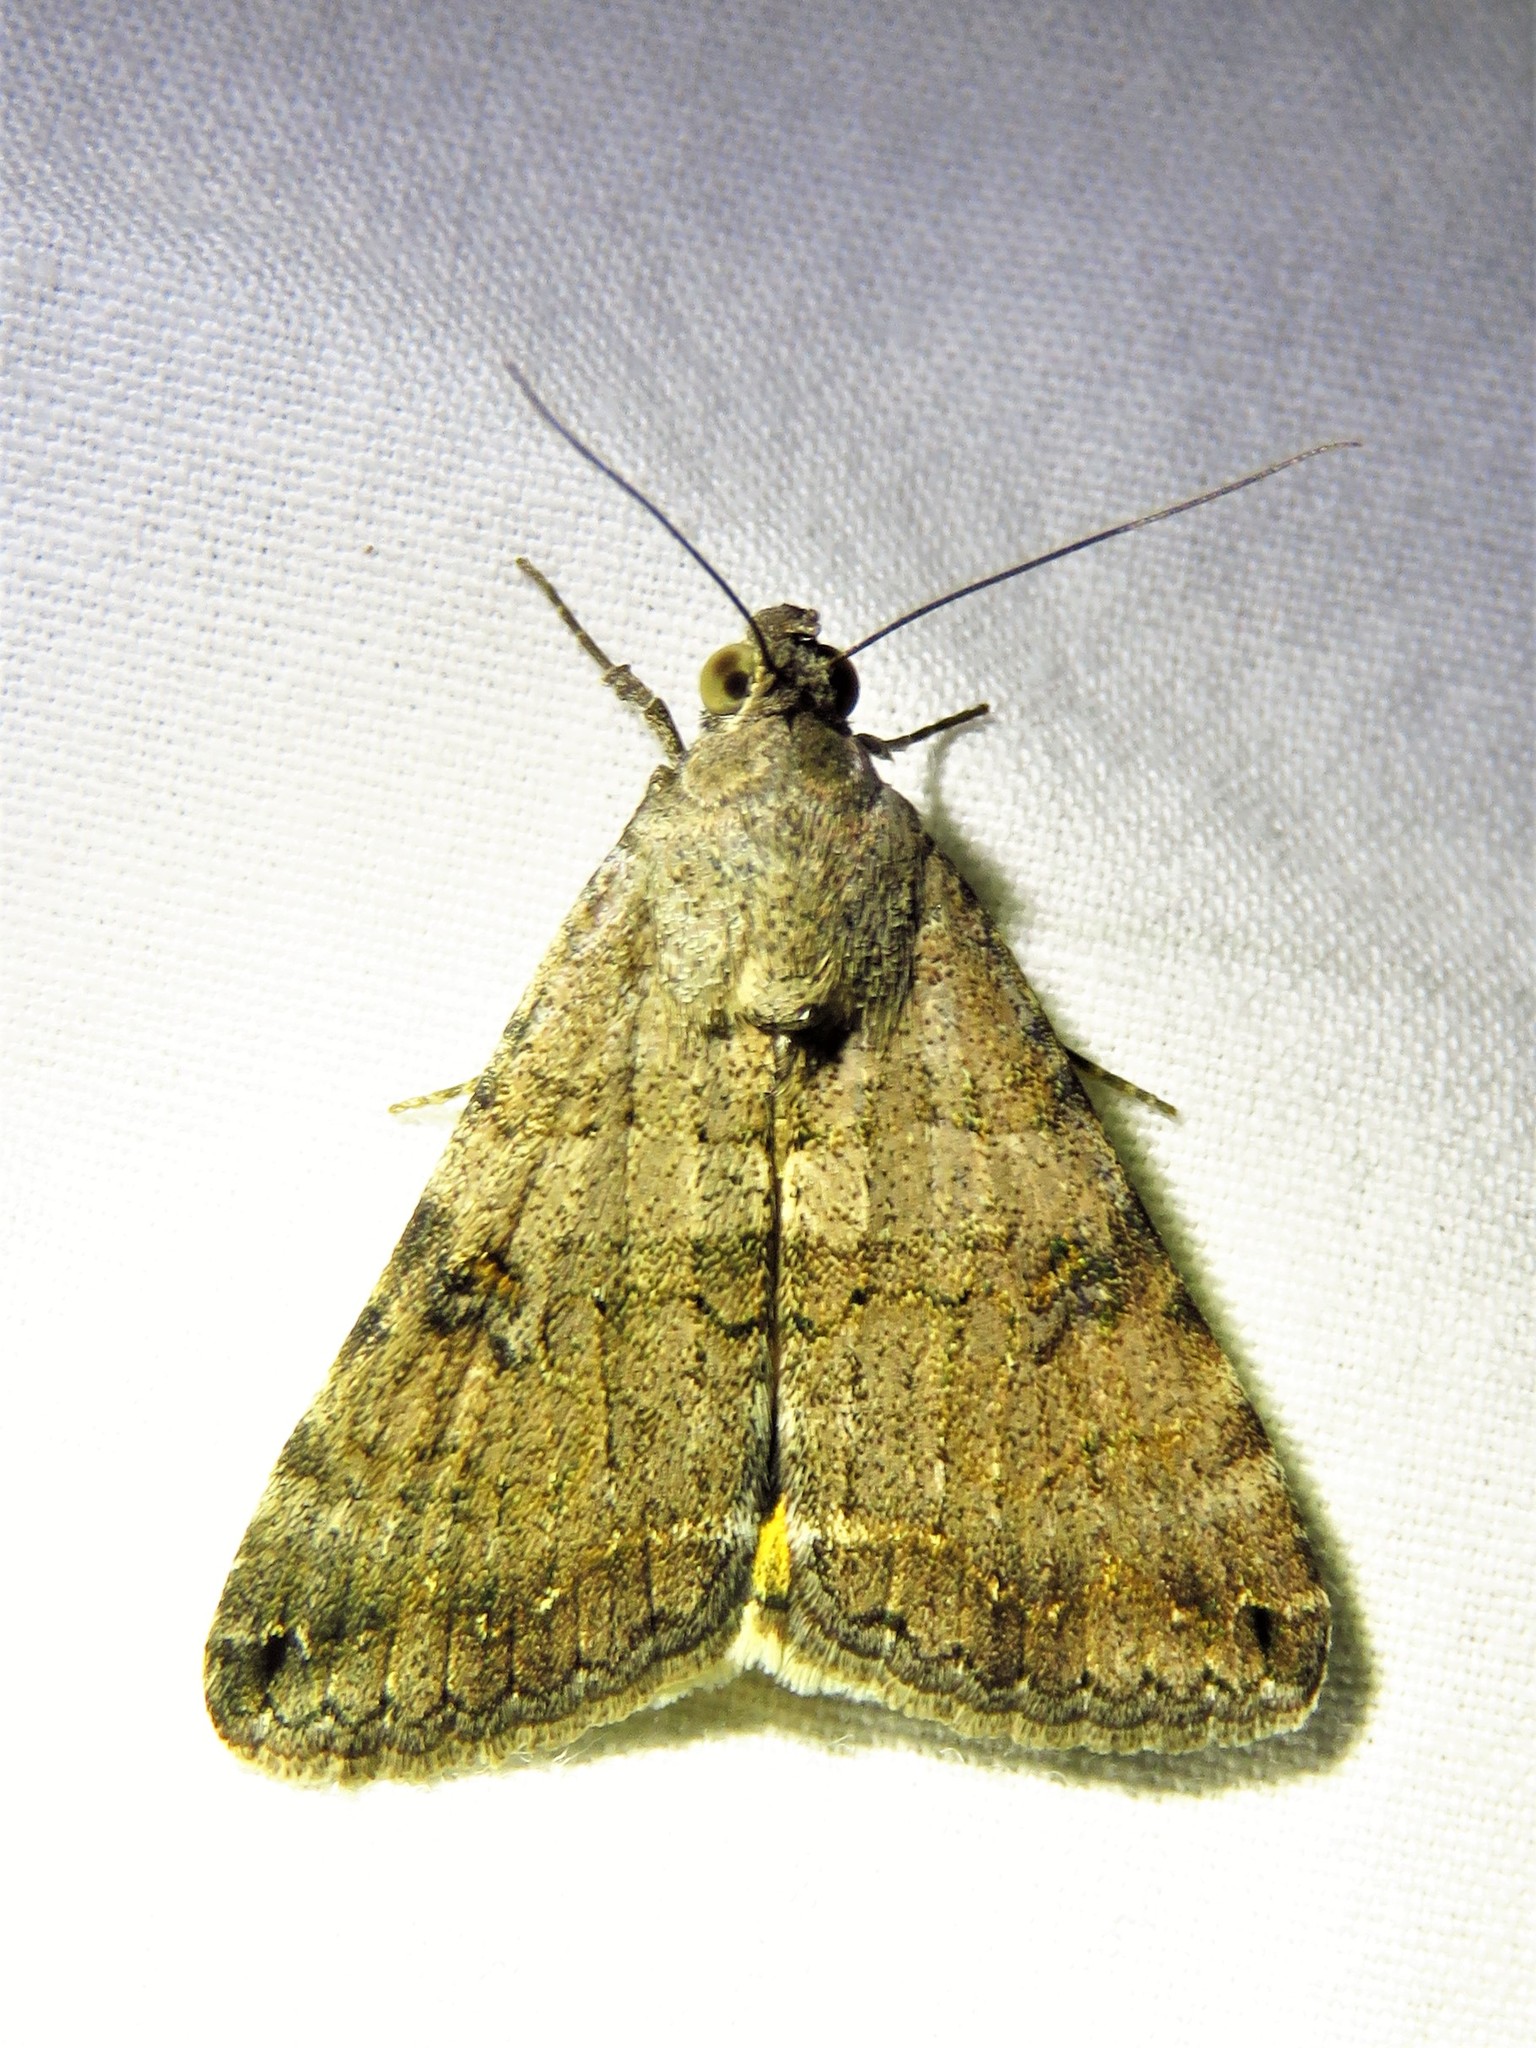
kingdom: Animalia
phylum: Arthropoda
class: Insecta
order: Lepidoptera
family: Erebidae
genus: Bulia
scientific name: Bulia deducta
